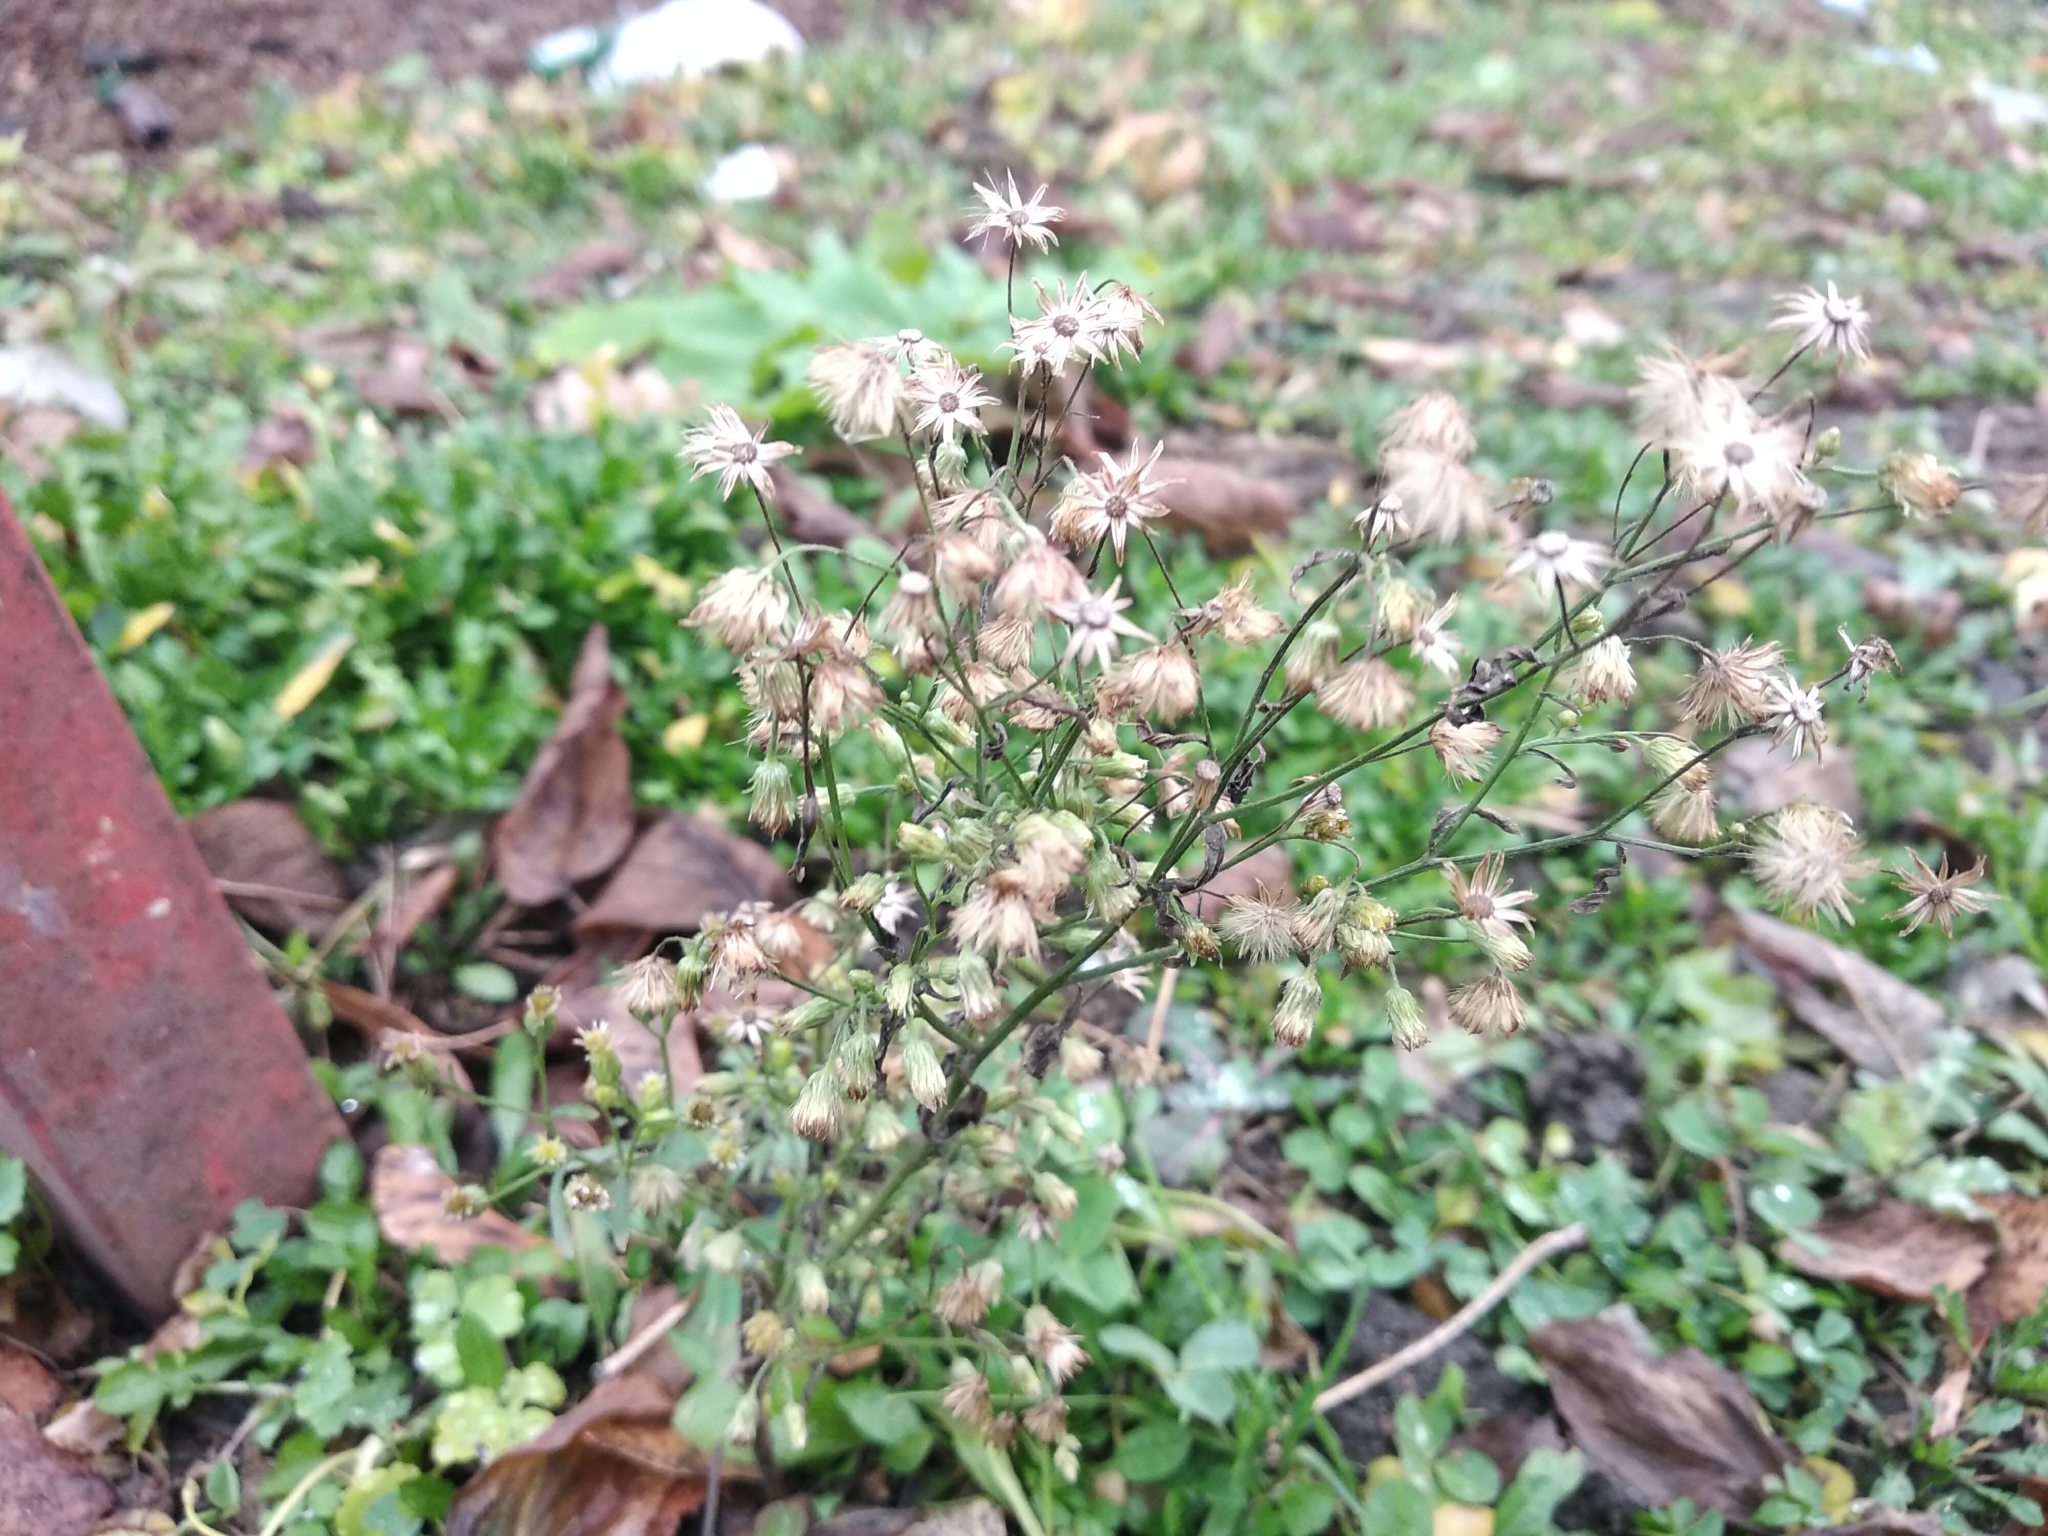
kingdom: Plantae
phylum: Tracheophyta
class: Magnoliopsida
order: Asterales
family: Asteraceae
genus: Erigeron
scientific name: Erigeron canadensis
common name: Canadian fleabane
